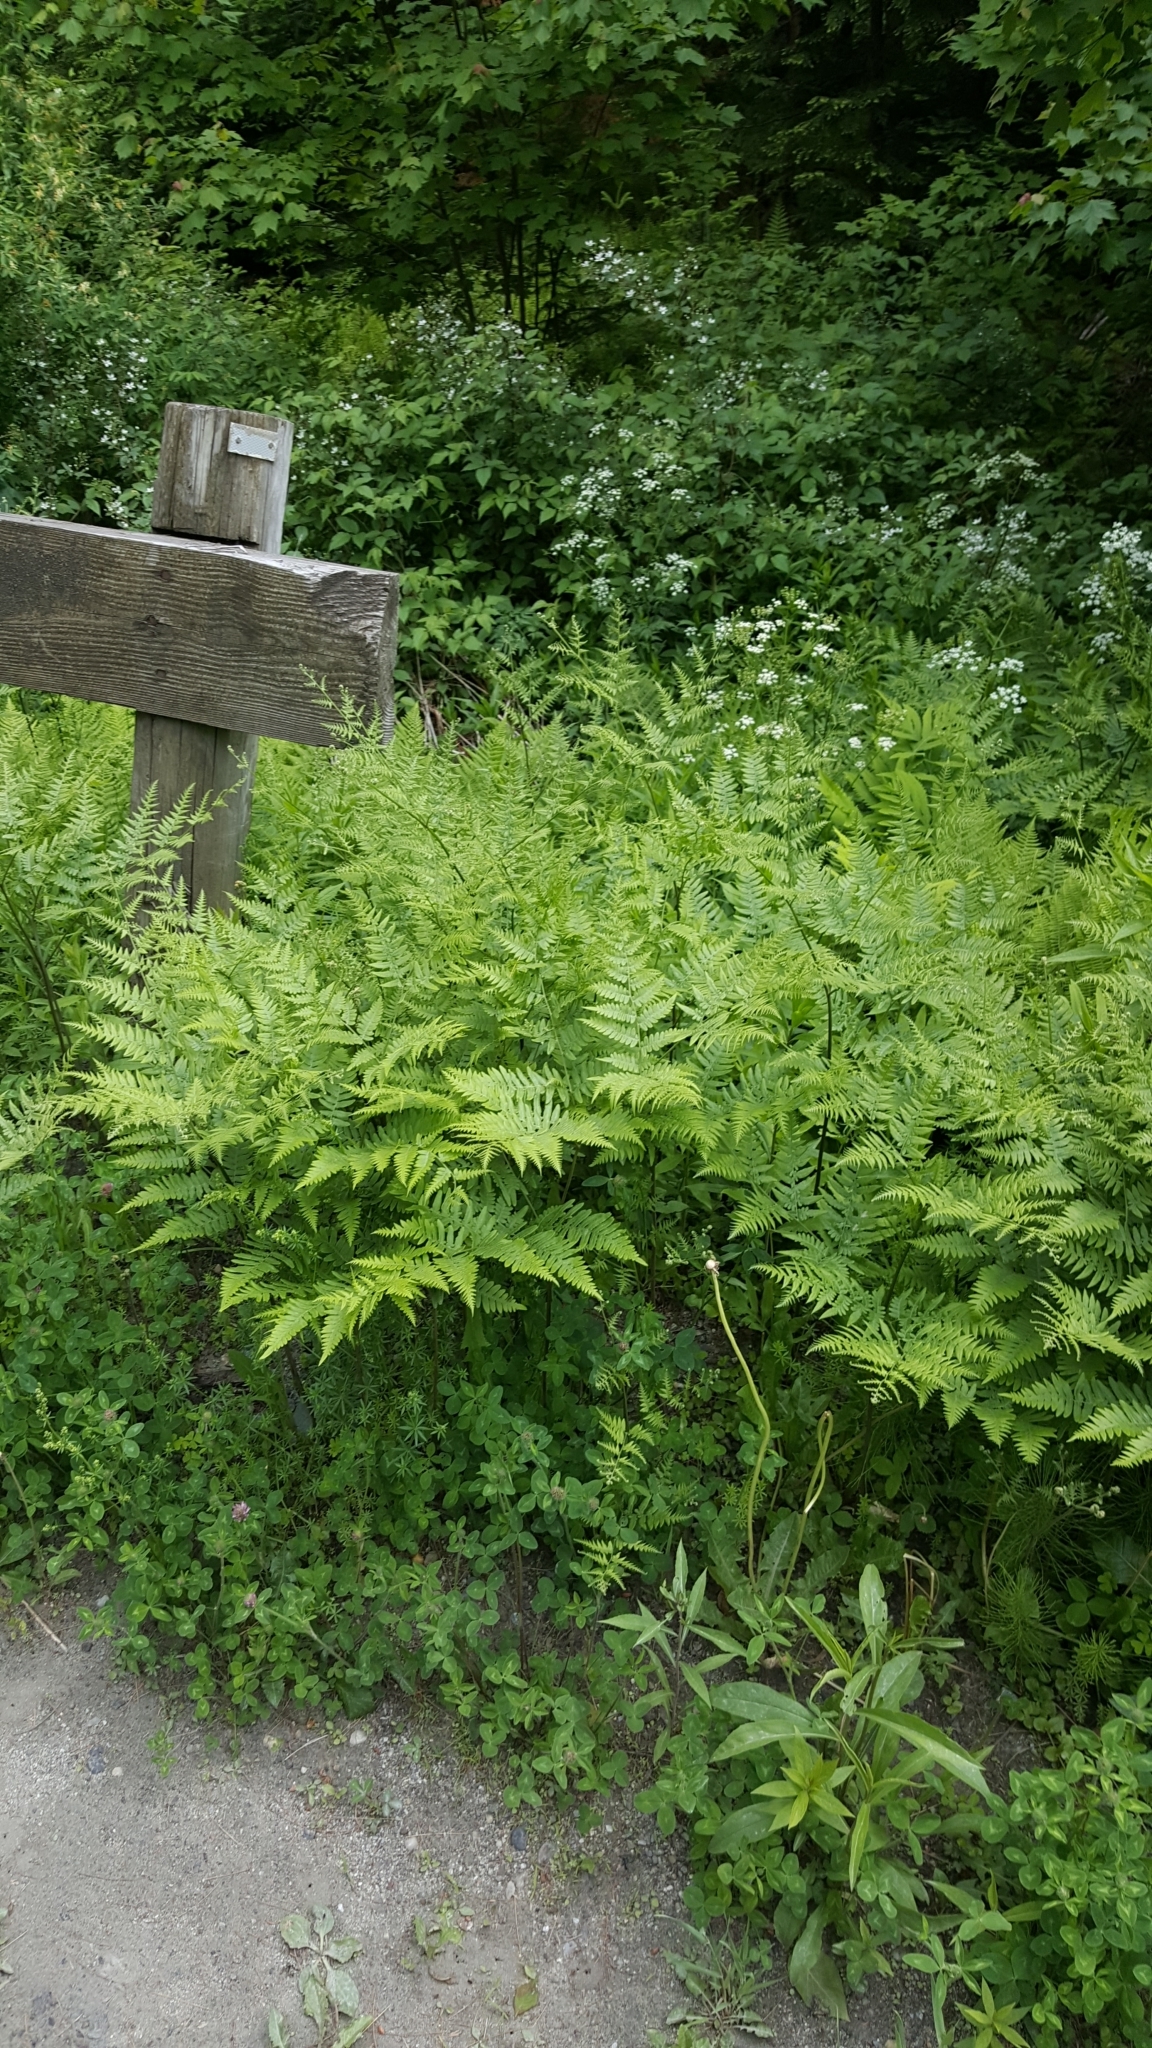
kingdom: Plantae
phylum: Tracheophyta
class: Polypodiopsida
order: Polypodiales
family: Dennstaedtiaceae
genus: Pteridium
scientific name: Pteridium aquilinum
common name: Bracken
